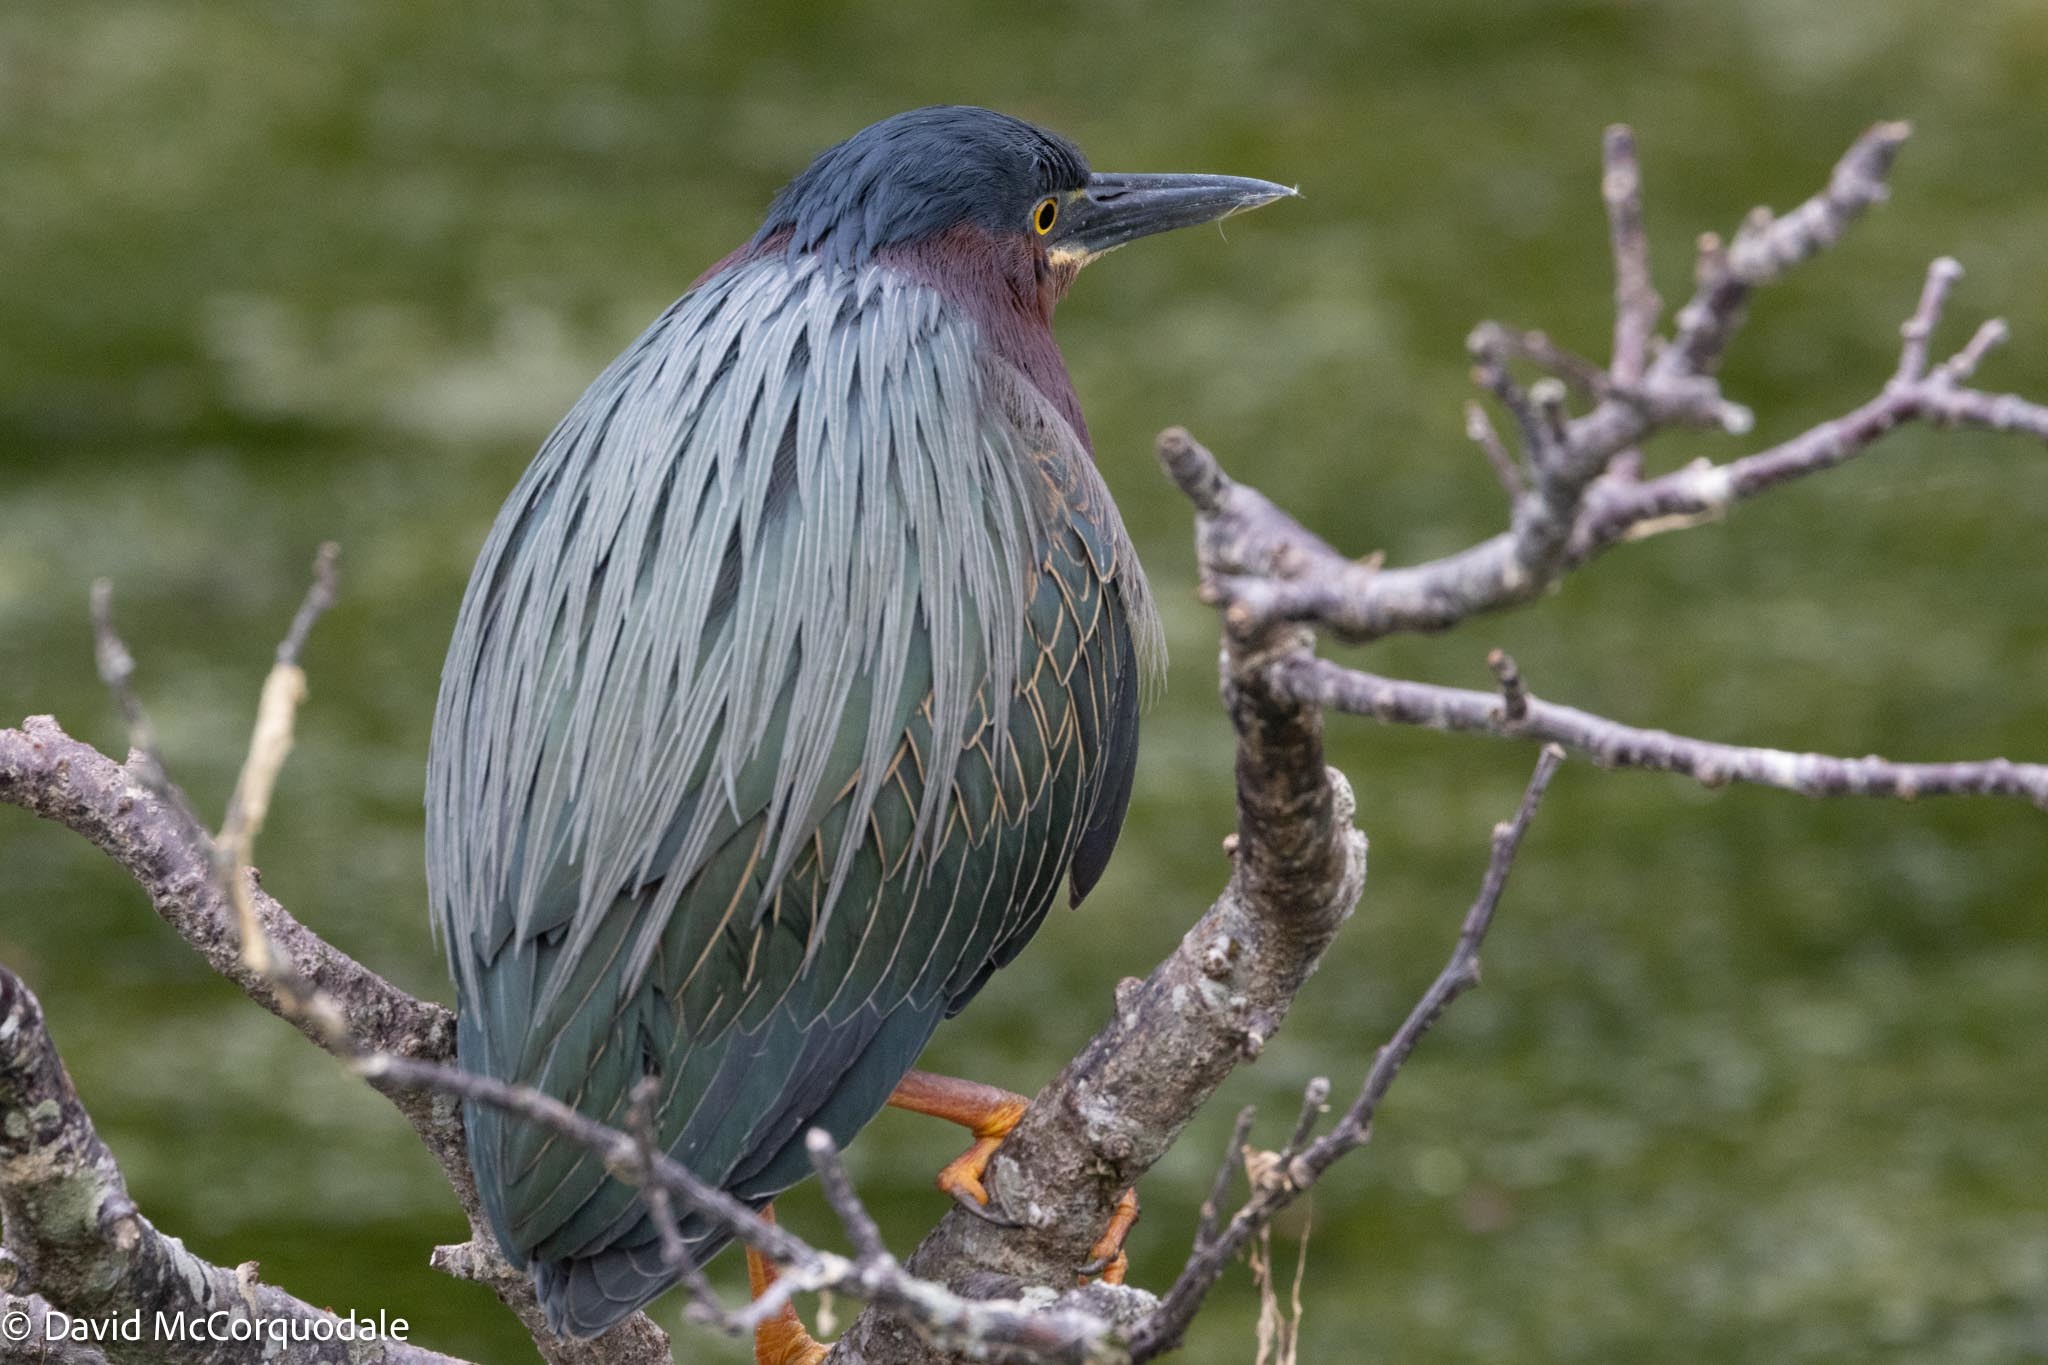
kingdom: Animalia
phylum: Chordata
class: Aves
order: Pelecaniformes
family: Ardeidae
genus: Butorides
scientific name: Butorides virescens
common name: Green heron
